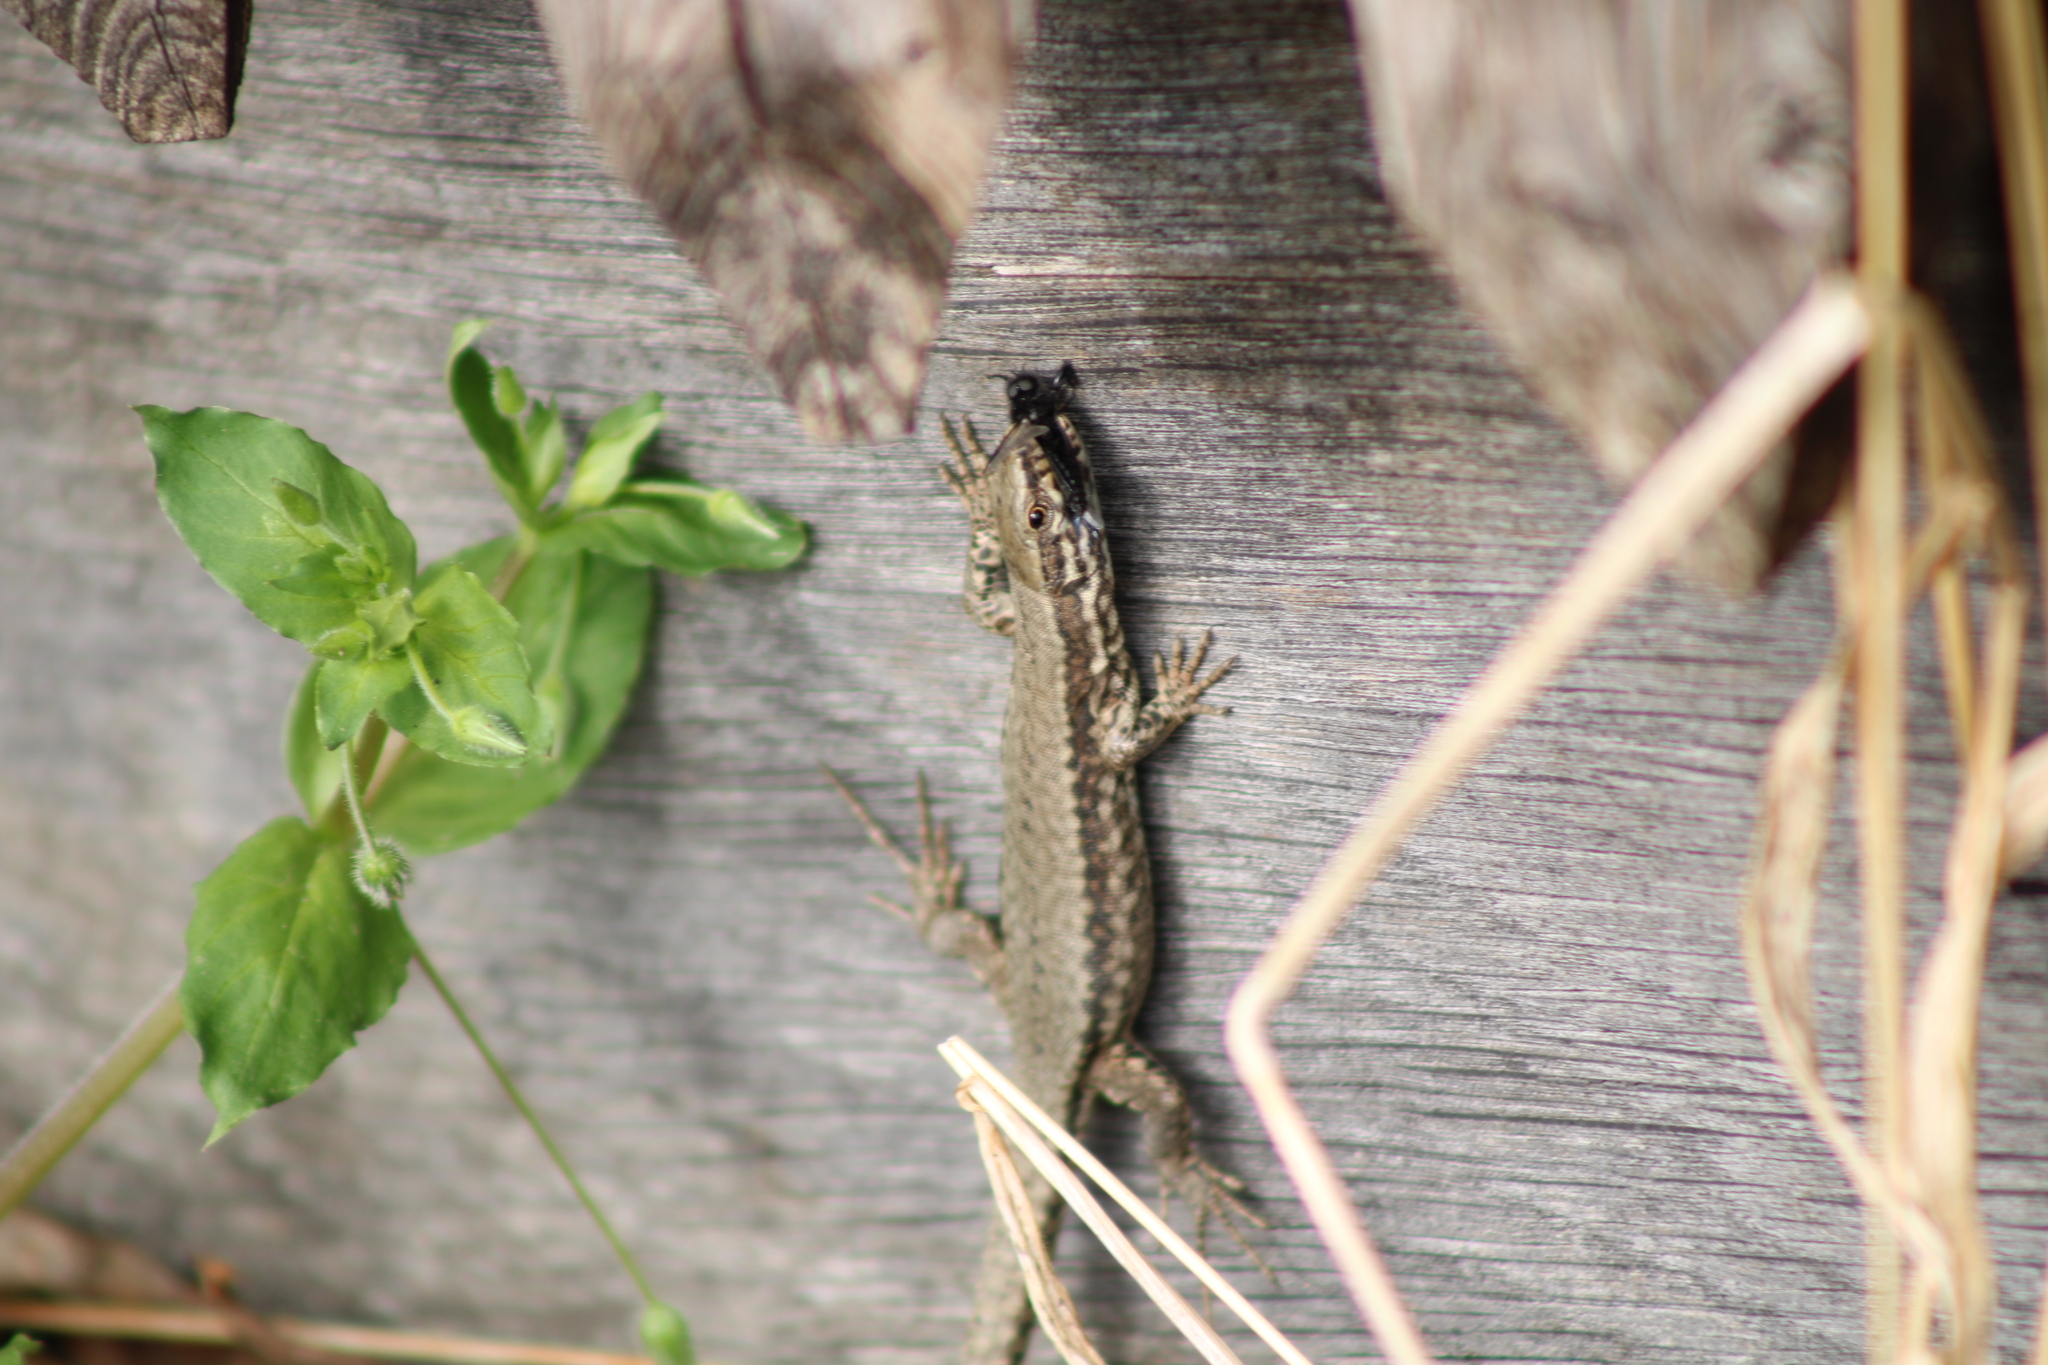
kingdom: Animalia
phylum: Chordata
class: Squamata
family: Lacertidae
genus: Podarcis
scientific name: Podarcis muralis
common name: Common wall lizard
